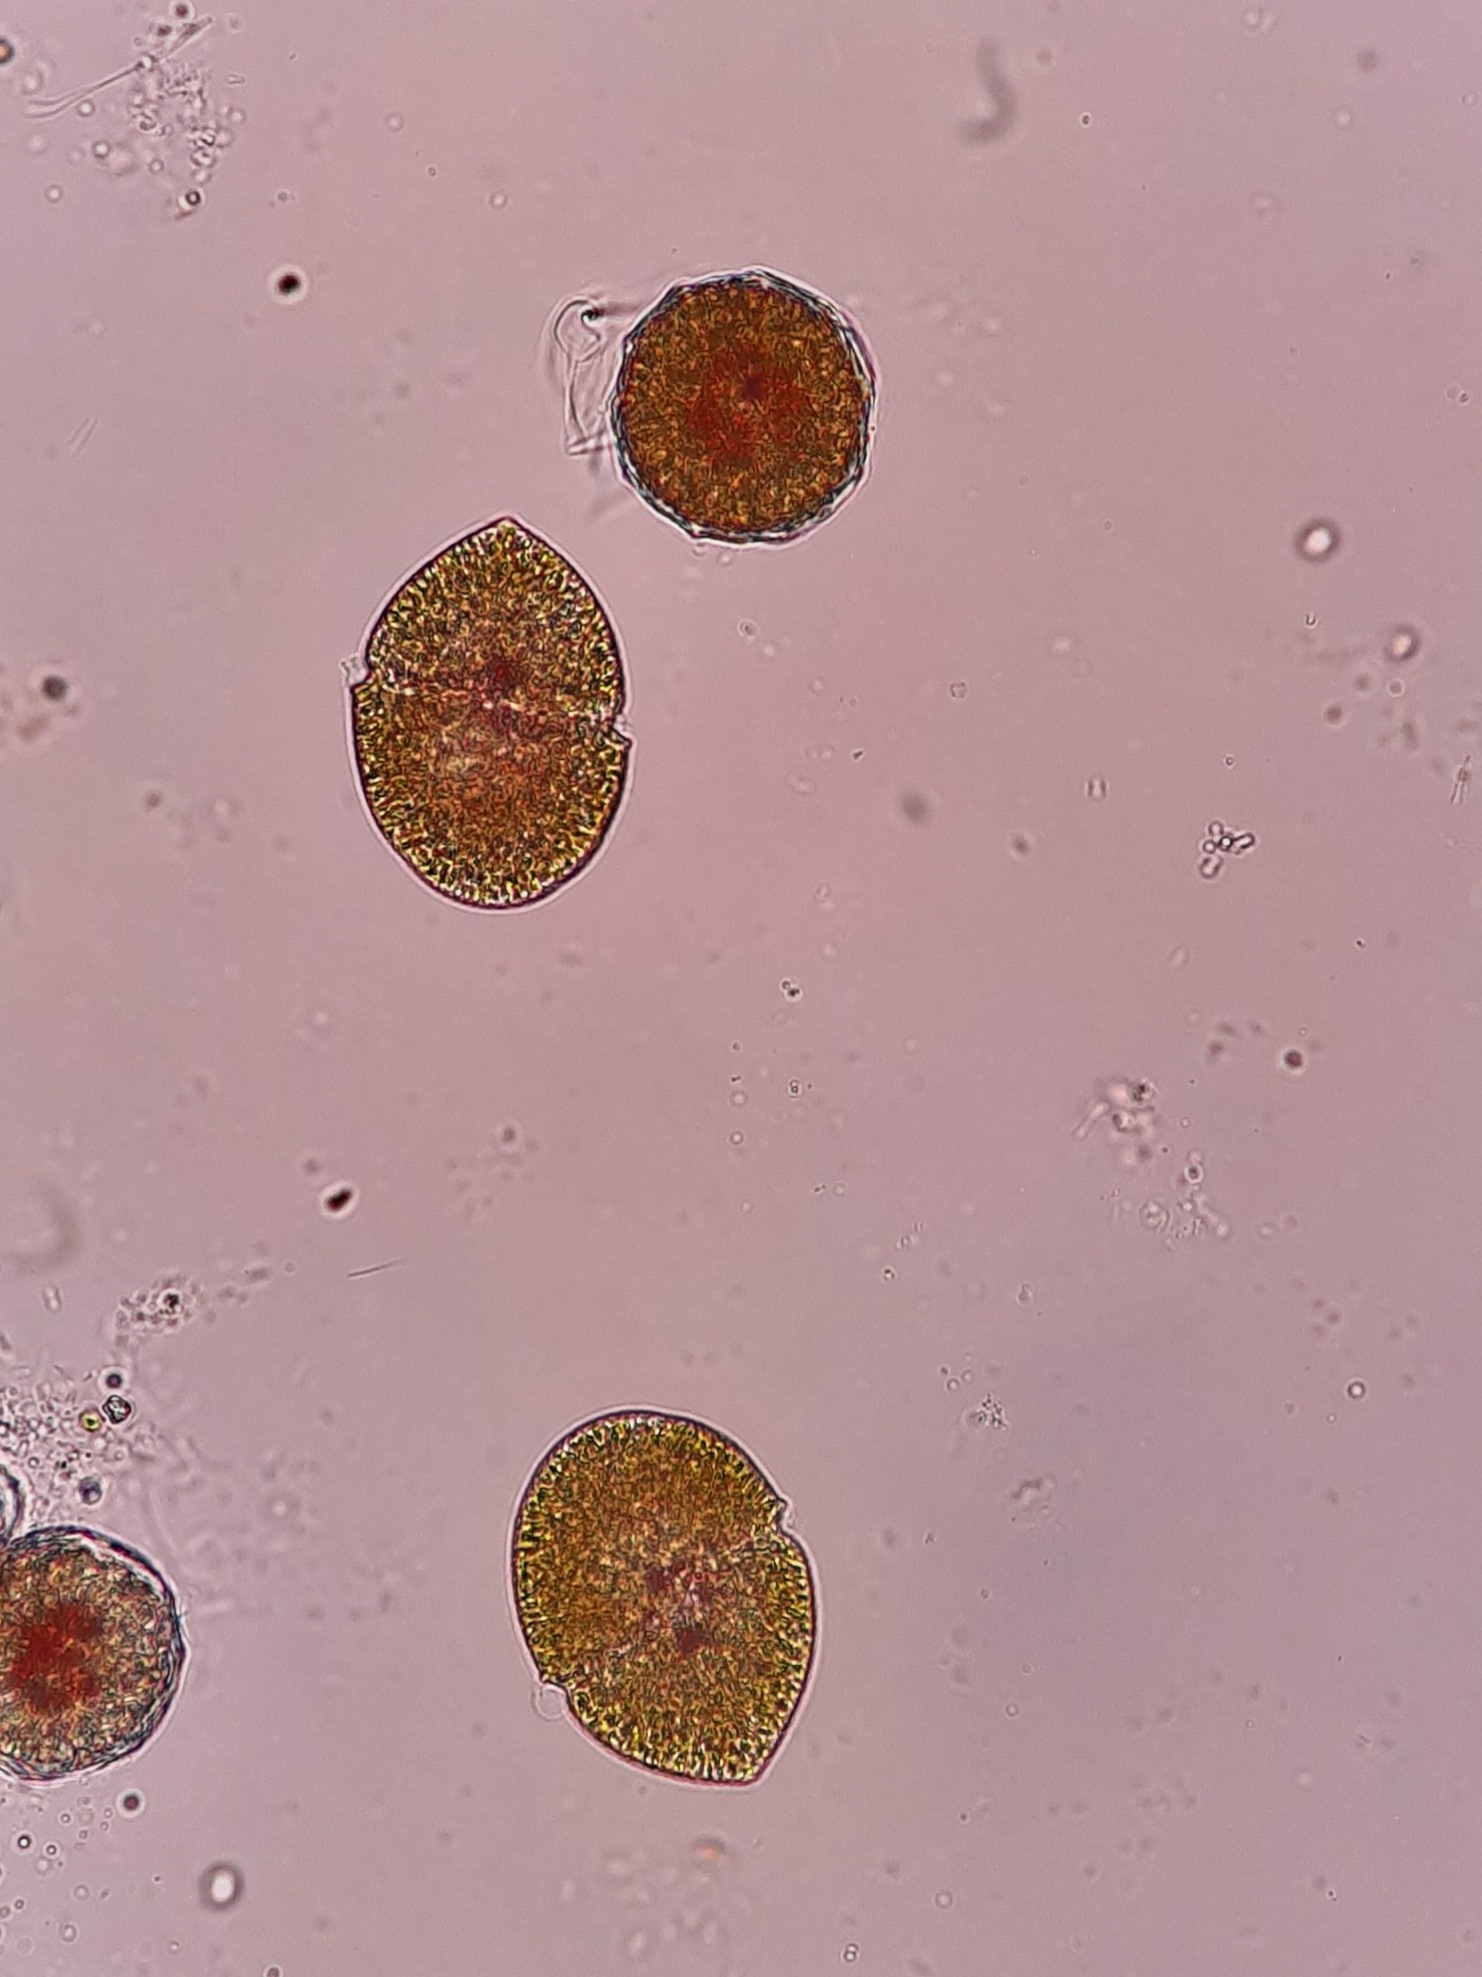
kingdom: Chromista
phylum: Myzozoa
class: Dinophyceae
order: Gymnodiniales
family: Gymnodiniaceae
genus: Gymnodinium
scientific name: Gymnodinium fuscum
